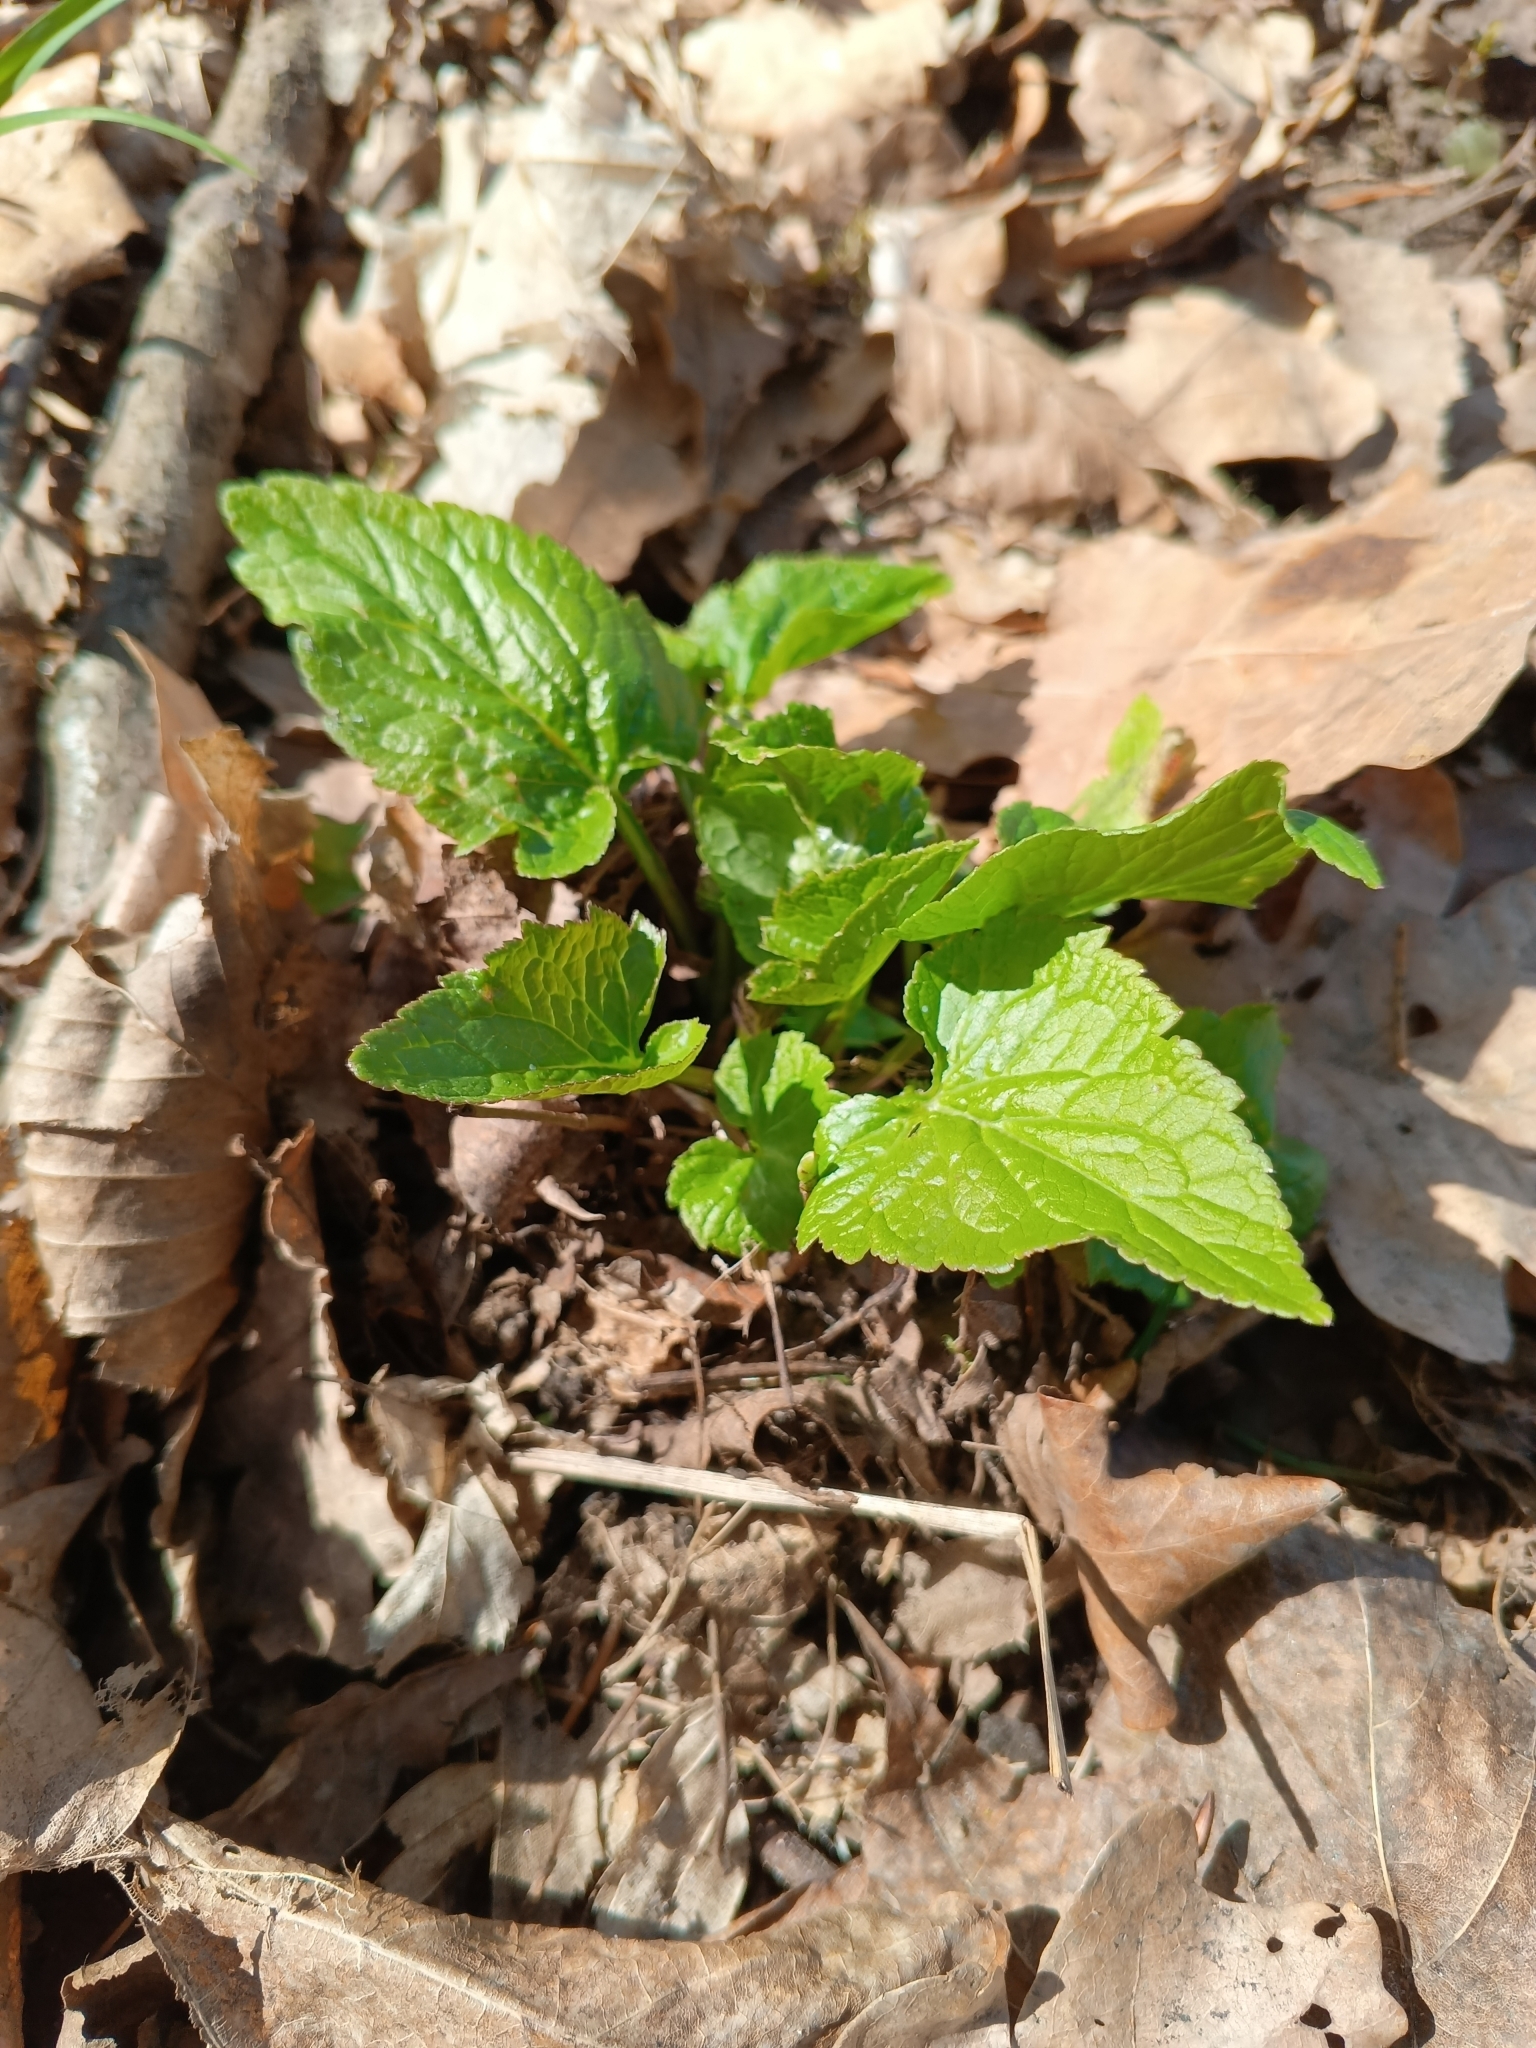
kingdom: Plantae
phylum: Tracheophyta
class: Magnoliopsida
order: Asterales
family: Campanulaceae
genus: Phyteuma
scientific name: Phyteuma spicatum
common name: Spiked rampion
